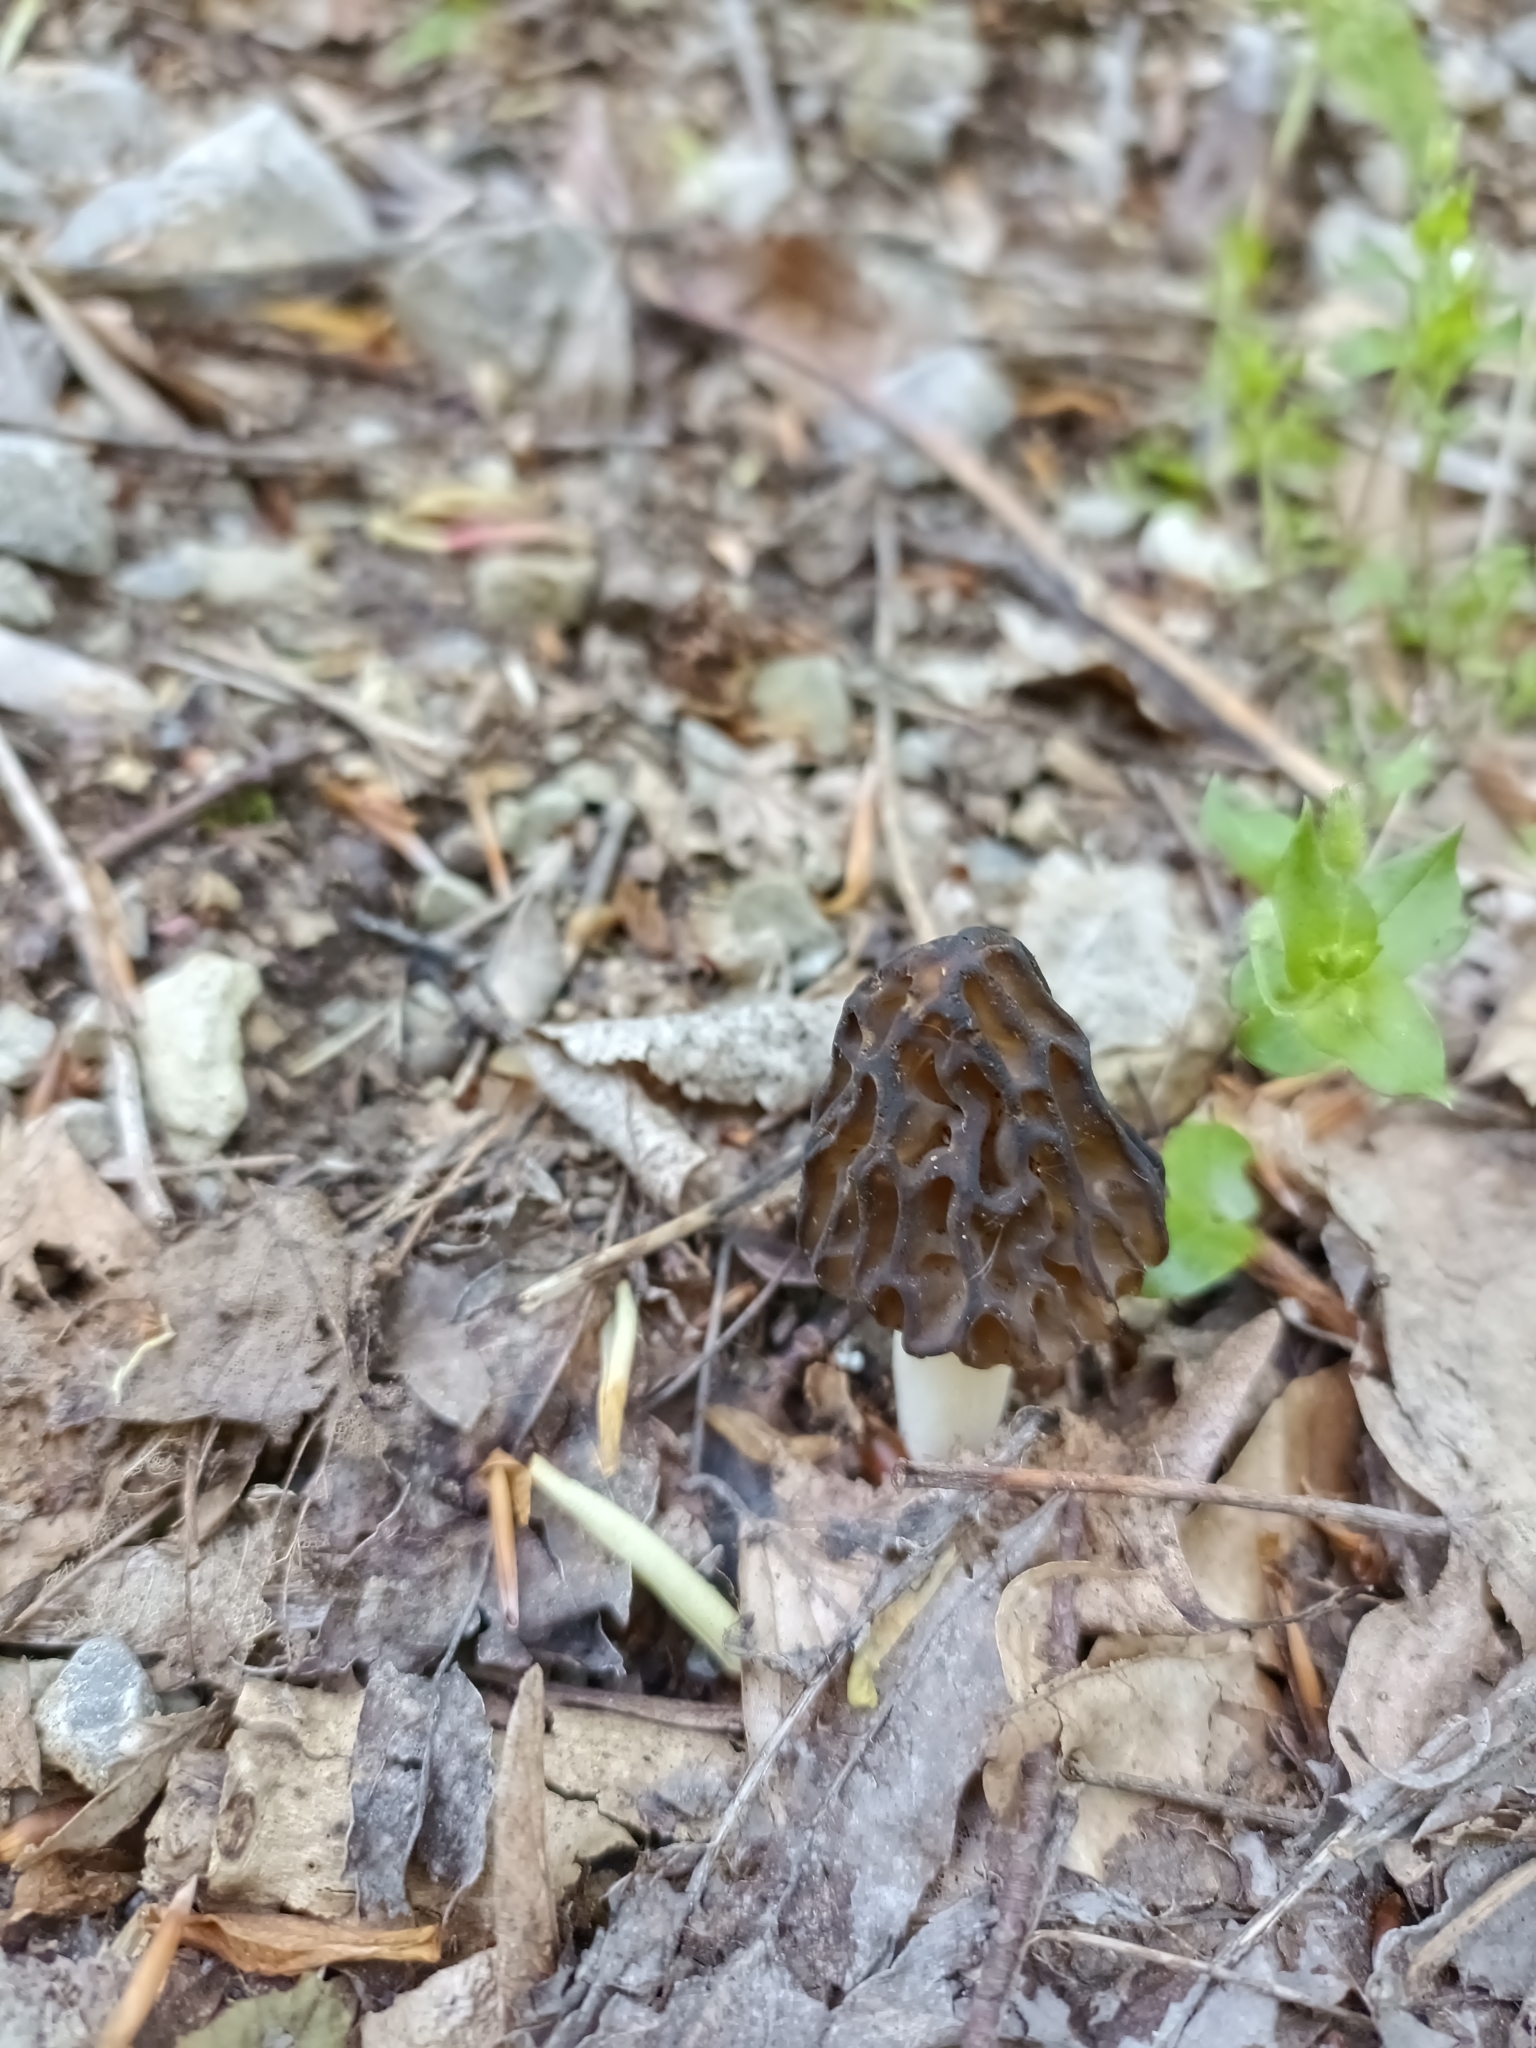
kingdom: Fungi
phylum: Ascomycota
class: Pezizomycetes
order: Pezizales
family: Morchellaceae
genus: Morchella
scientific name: Morchella semilibera
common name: Semifree morel
